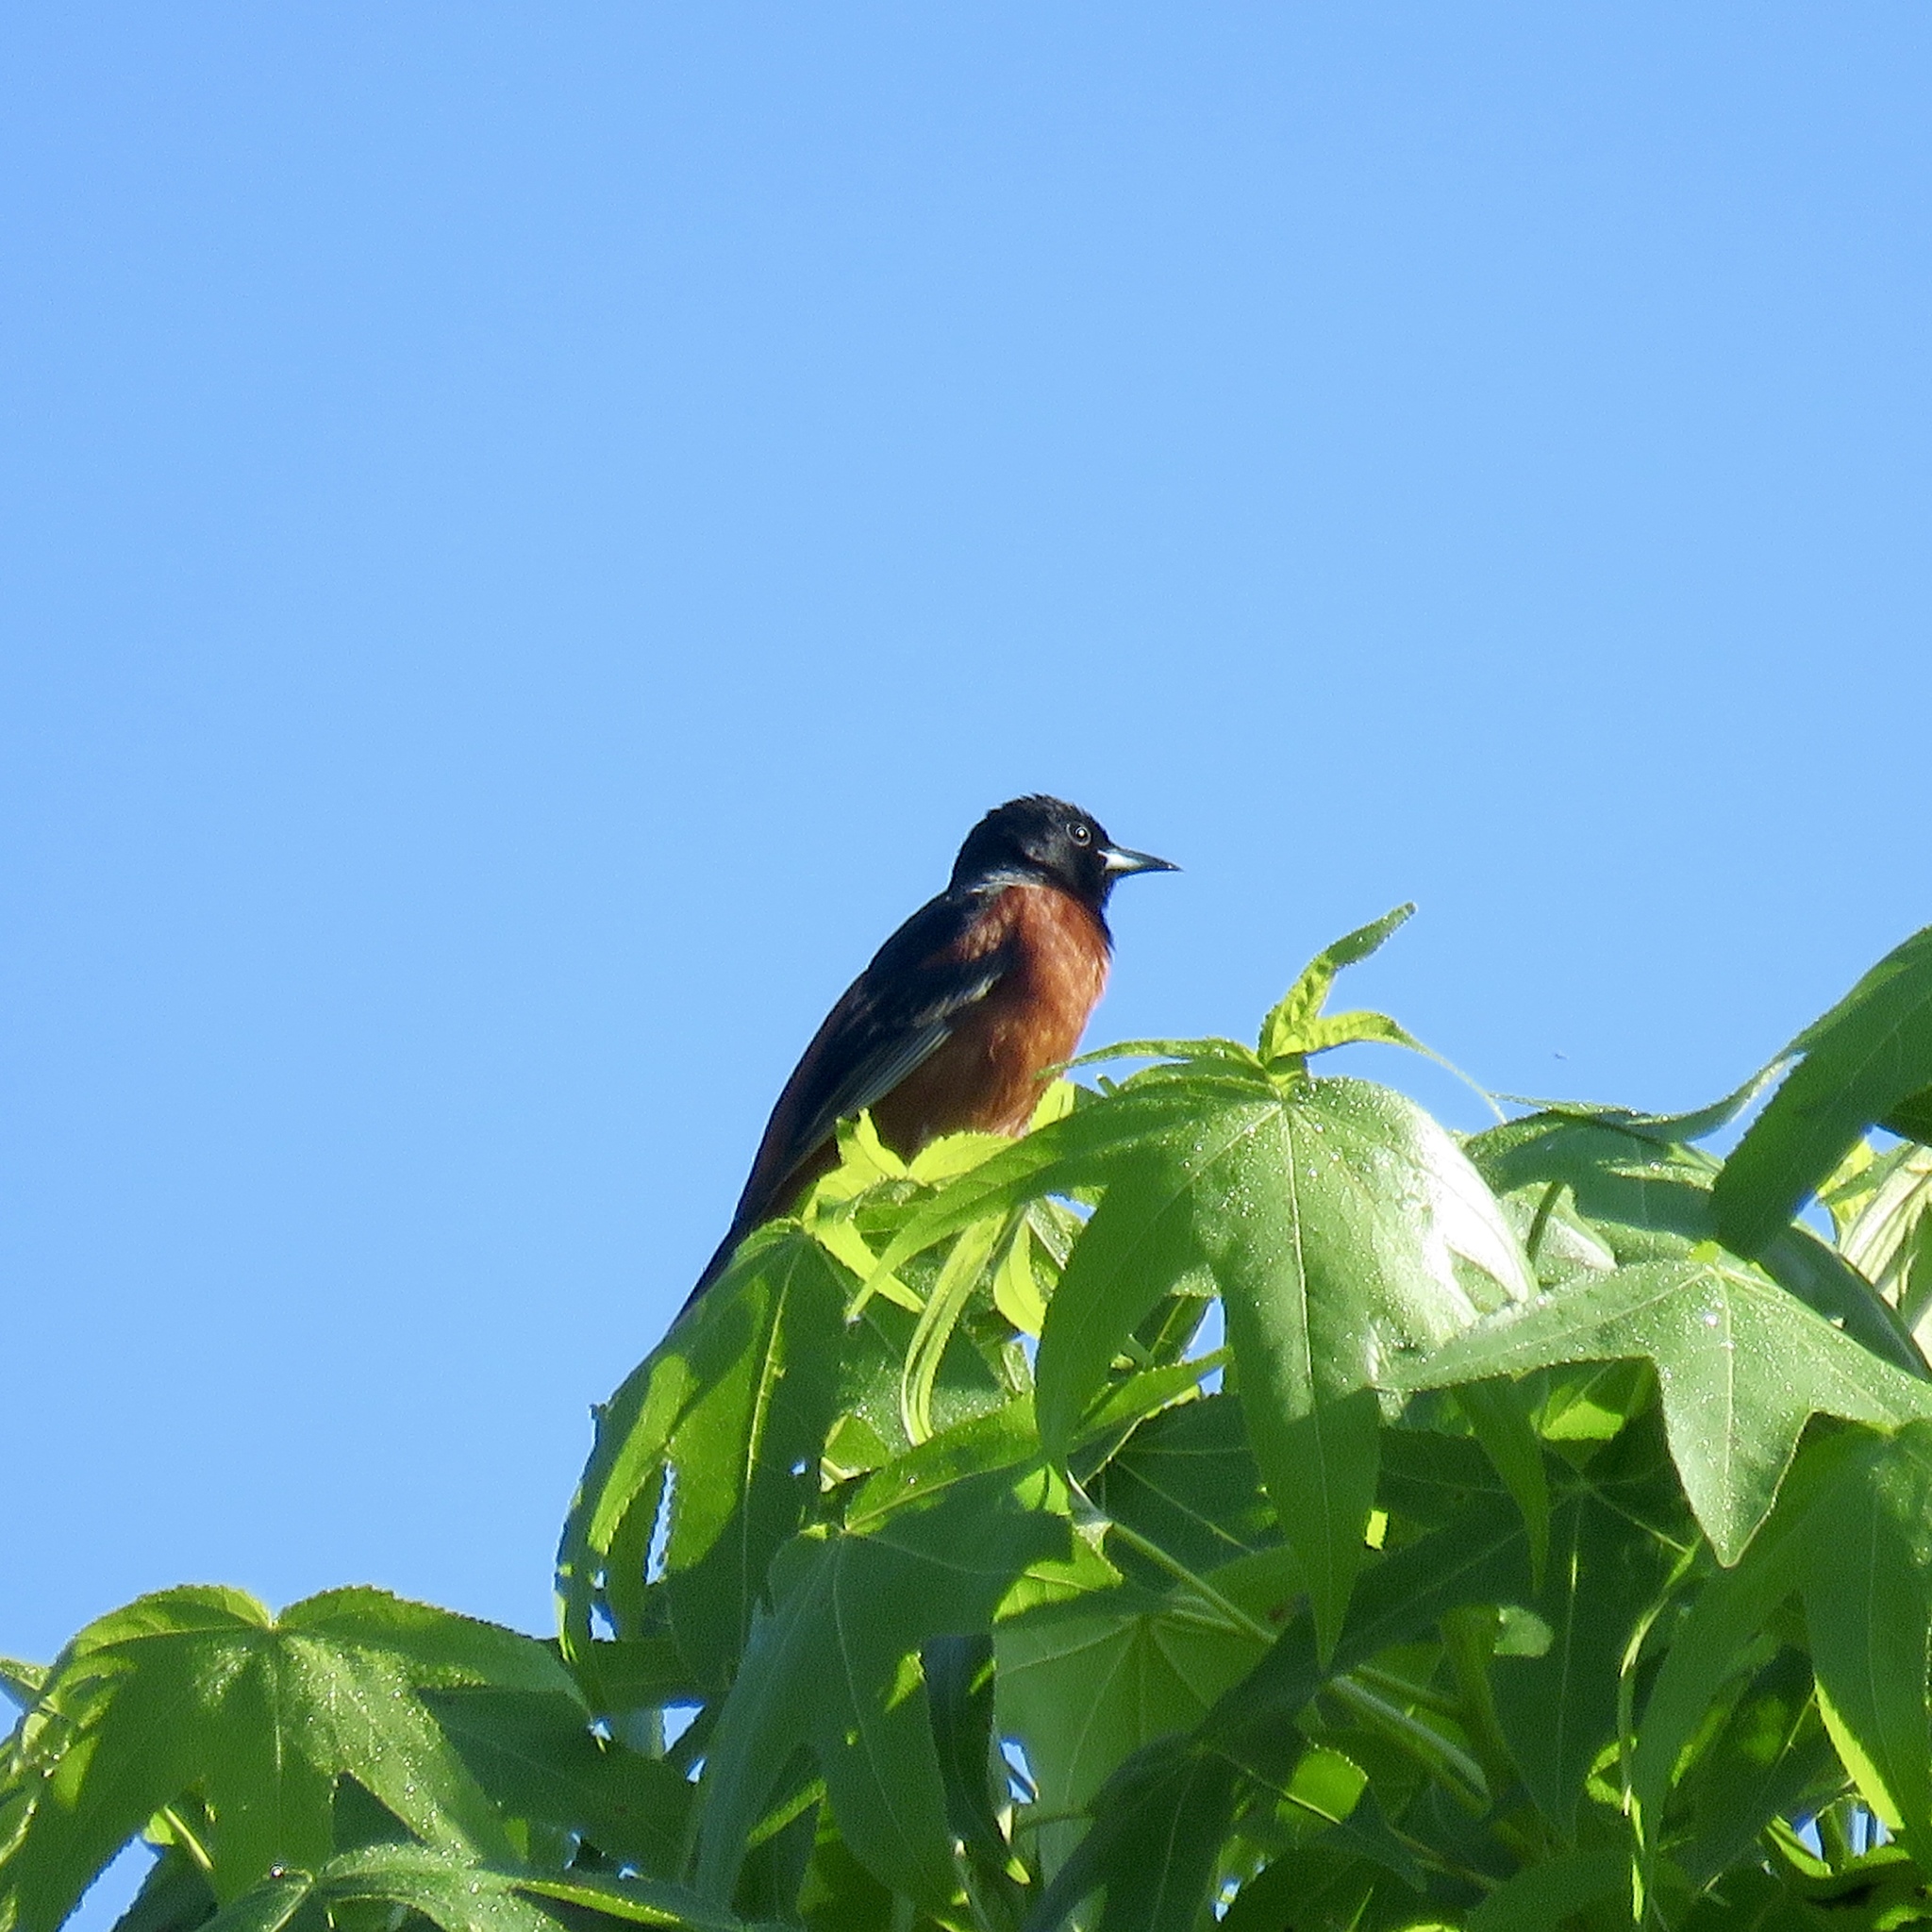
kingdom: Animalia
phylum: Chordata
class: Aves
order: Passeriformes
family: Icteridae
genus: Icterus
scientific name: Icterus spurius
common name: Orchard oriole
